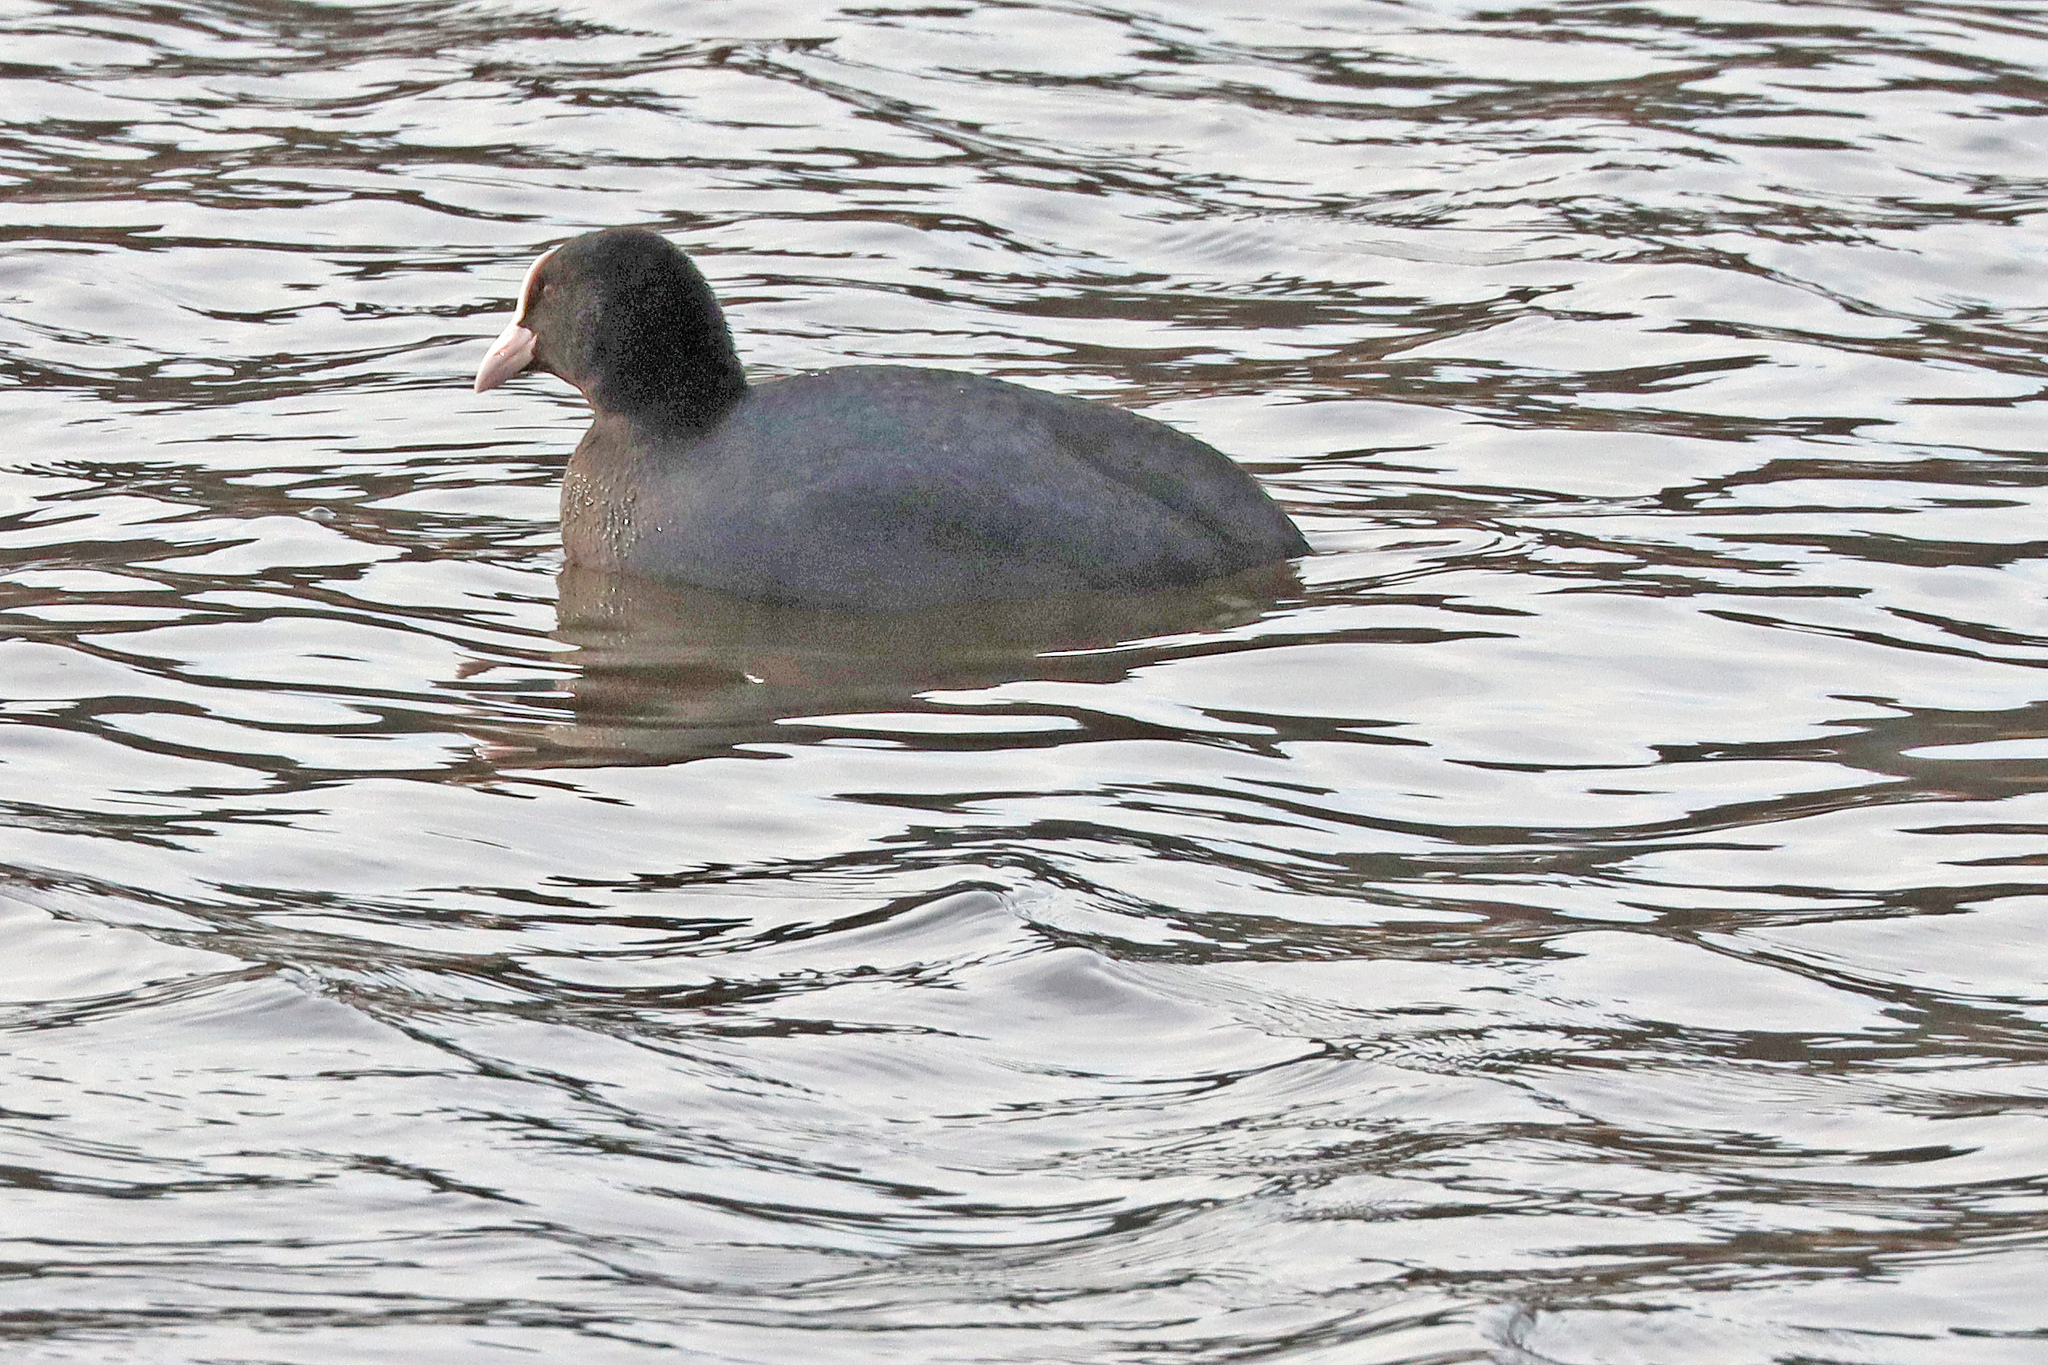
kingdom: Animalia
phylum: Chordata
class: Aves
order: Gruiformes
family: Rallidae
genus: Fulica
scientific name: Fulica atra
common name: Eurasian coot
